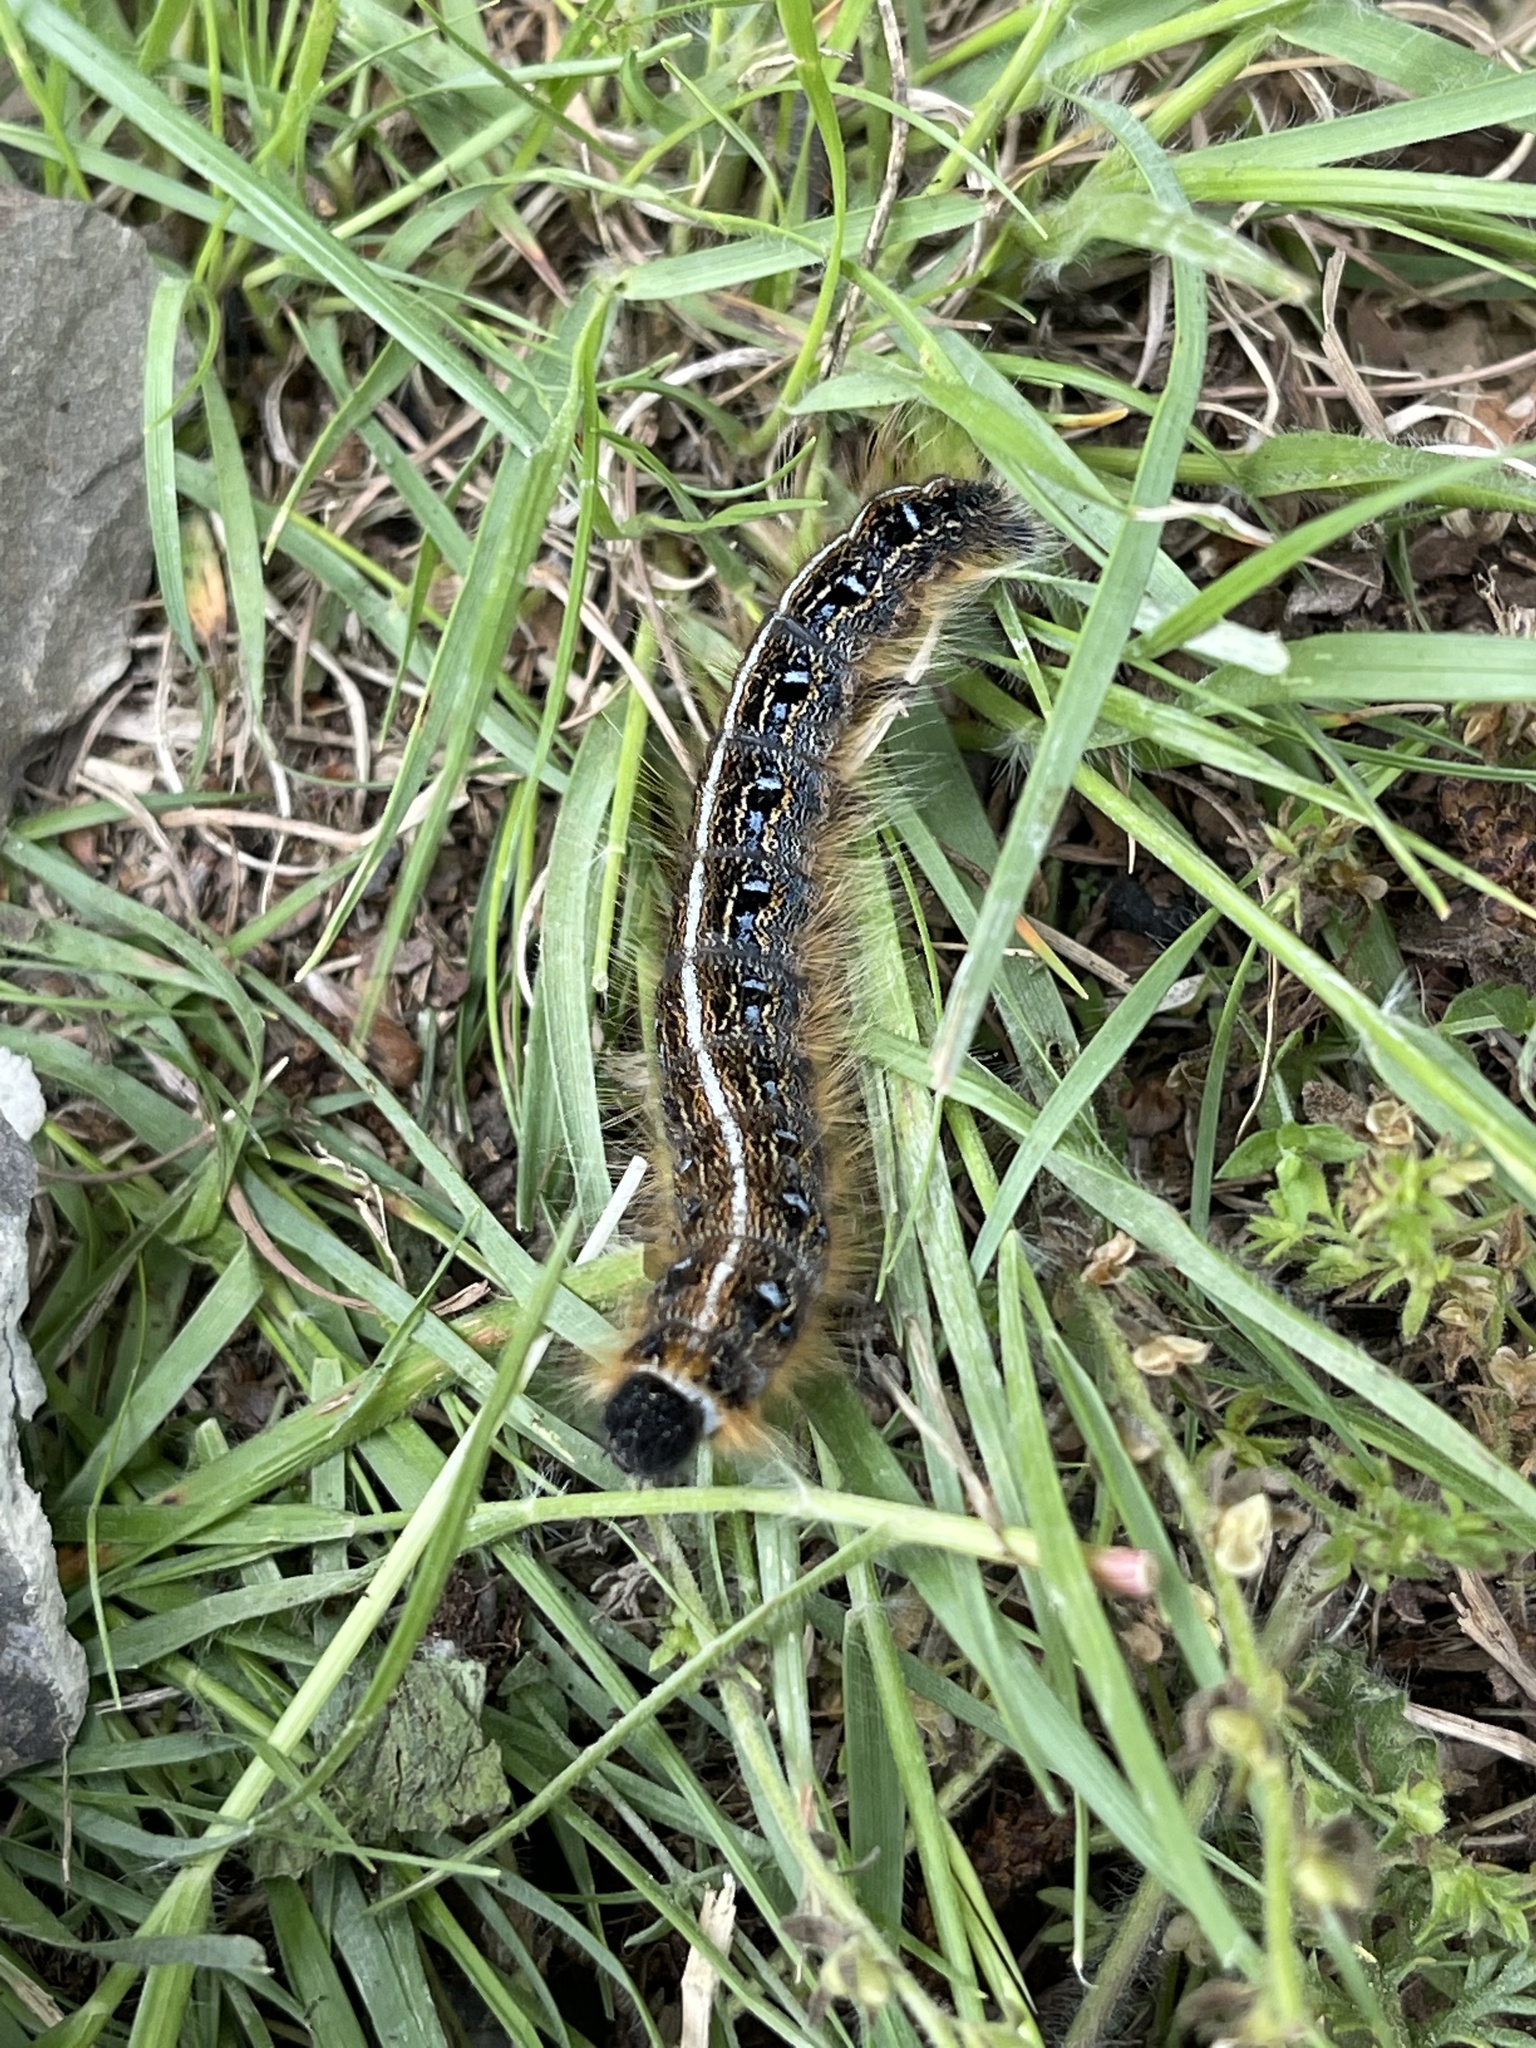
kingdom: Animalia
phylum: Arthropoda
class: Insecta
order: Lepidoptera
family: Lasiocampidae
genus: Malacosoma
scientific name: Malacosoma americana
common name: Eastern tent caterpillar moth
